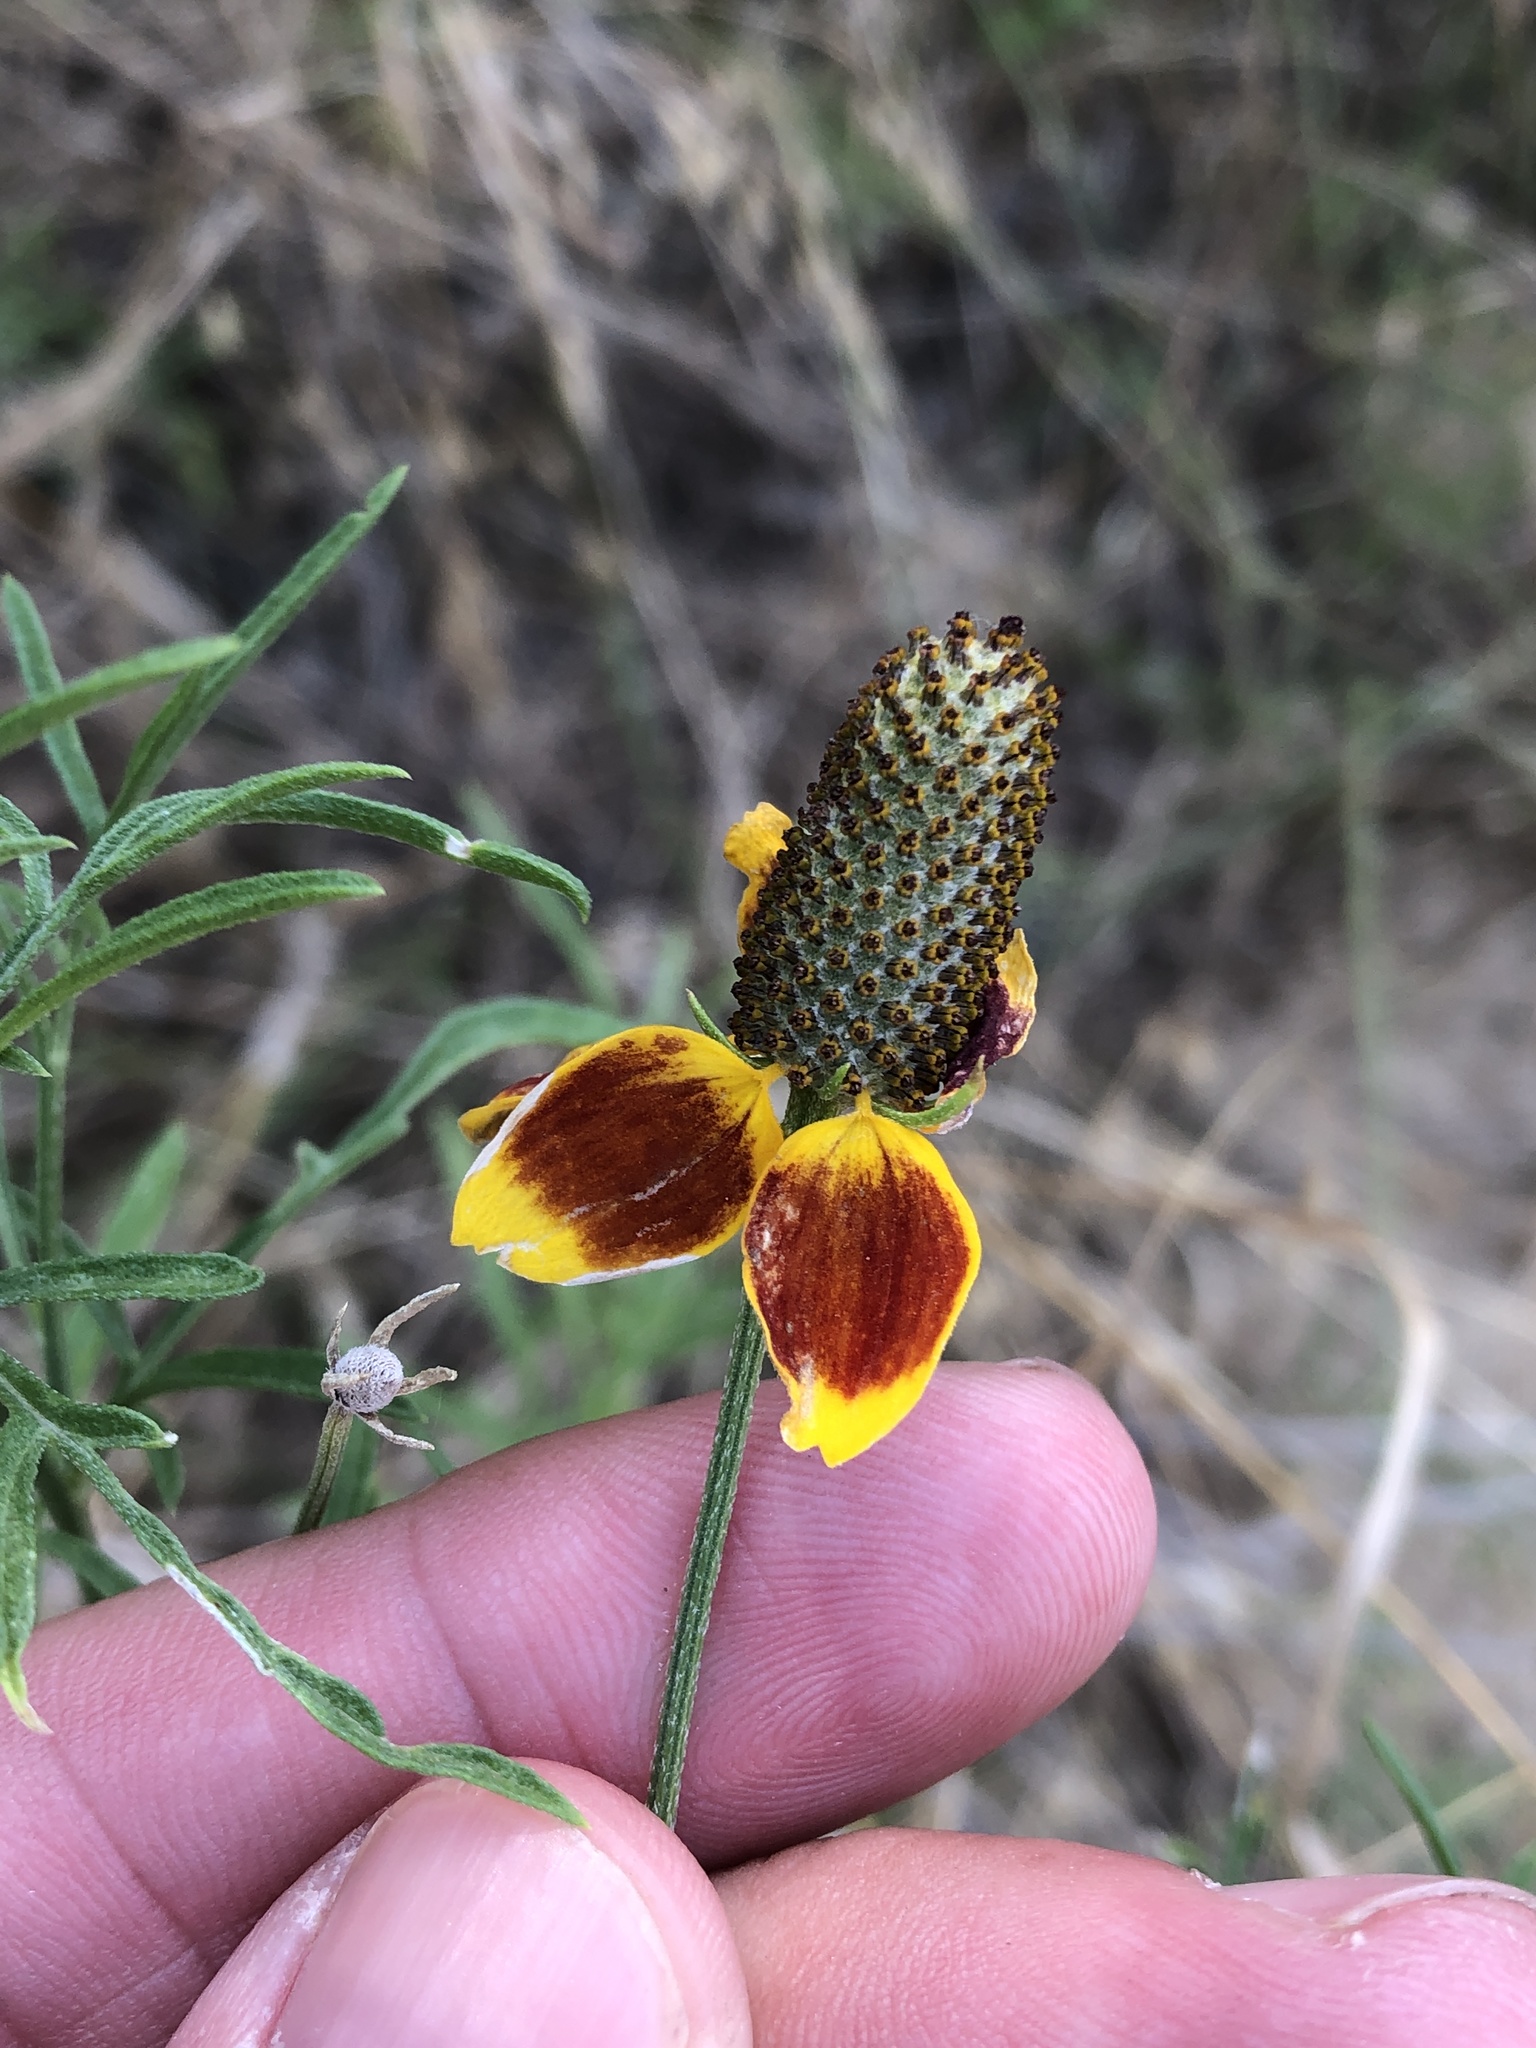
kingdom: Plantae
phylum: Tracheophyta
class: Magnoliopsida
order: Asterales
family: Asteraceae
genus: Ratibida
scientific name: Ratibida columnifera
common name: Prairie coneflower
